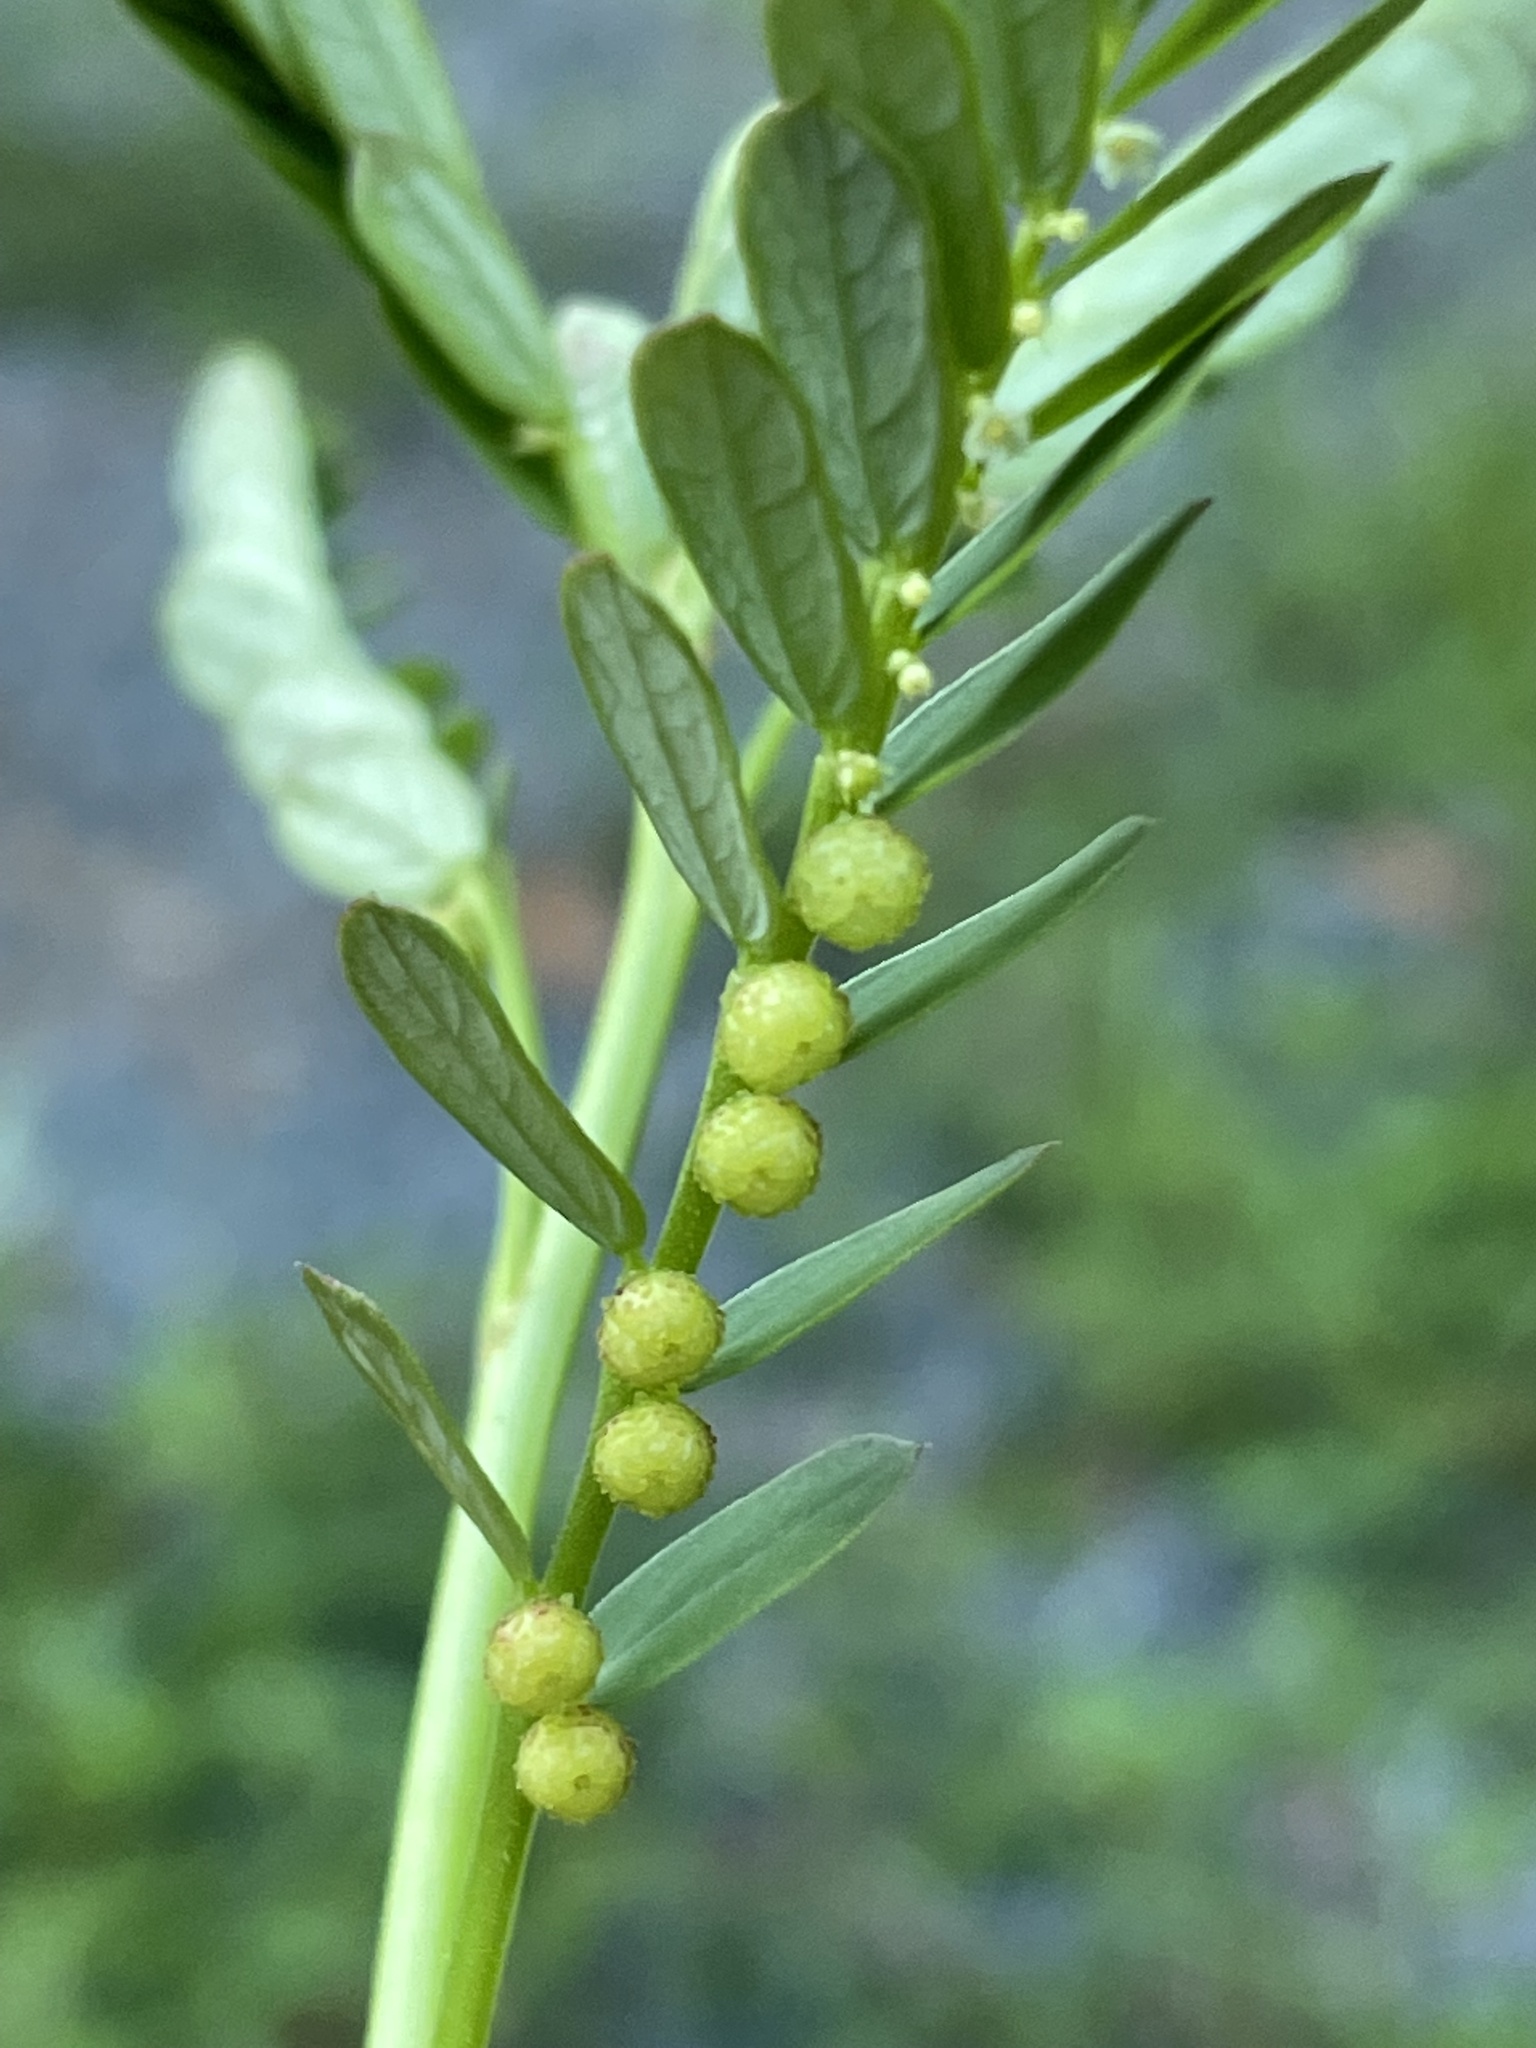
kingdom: Plantae
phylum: Tracheophyta
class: Magnoliopsida
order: Malpighiales
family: Phyllanthaceae
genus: Phyllanthus
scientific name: Phyllanthus urinaria
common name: Chamber bitter
